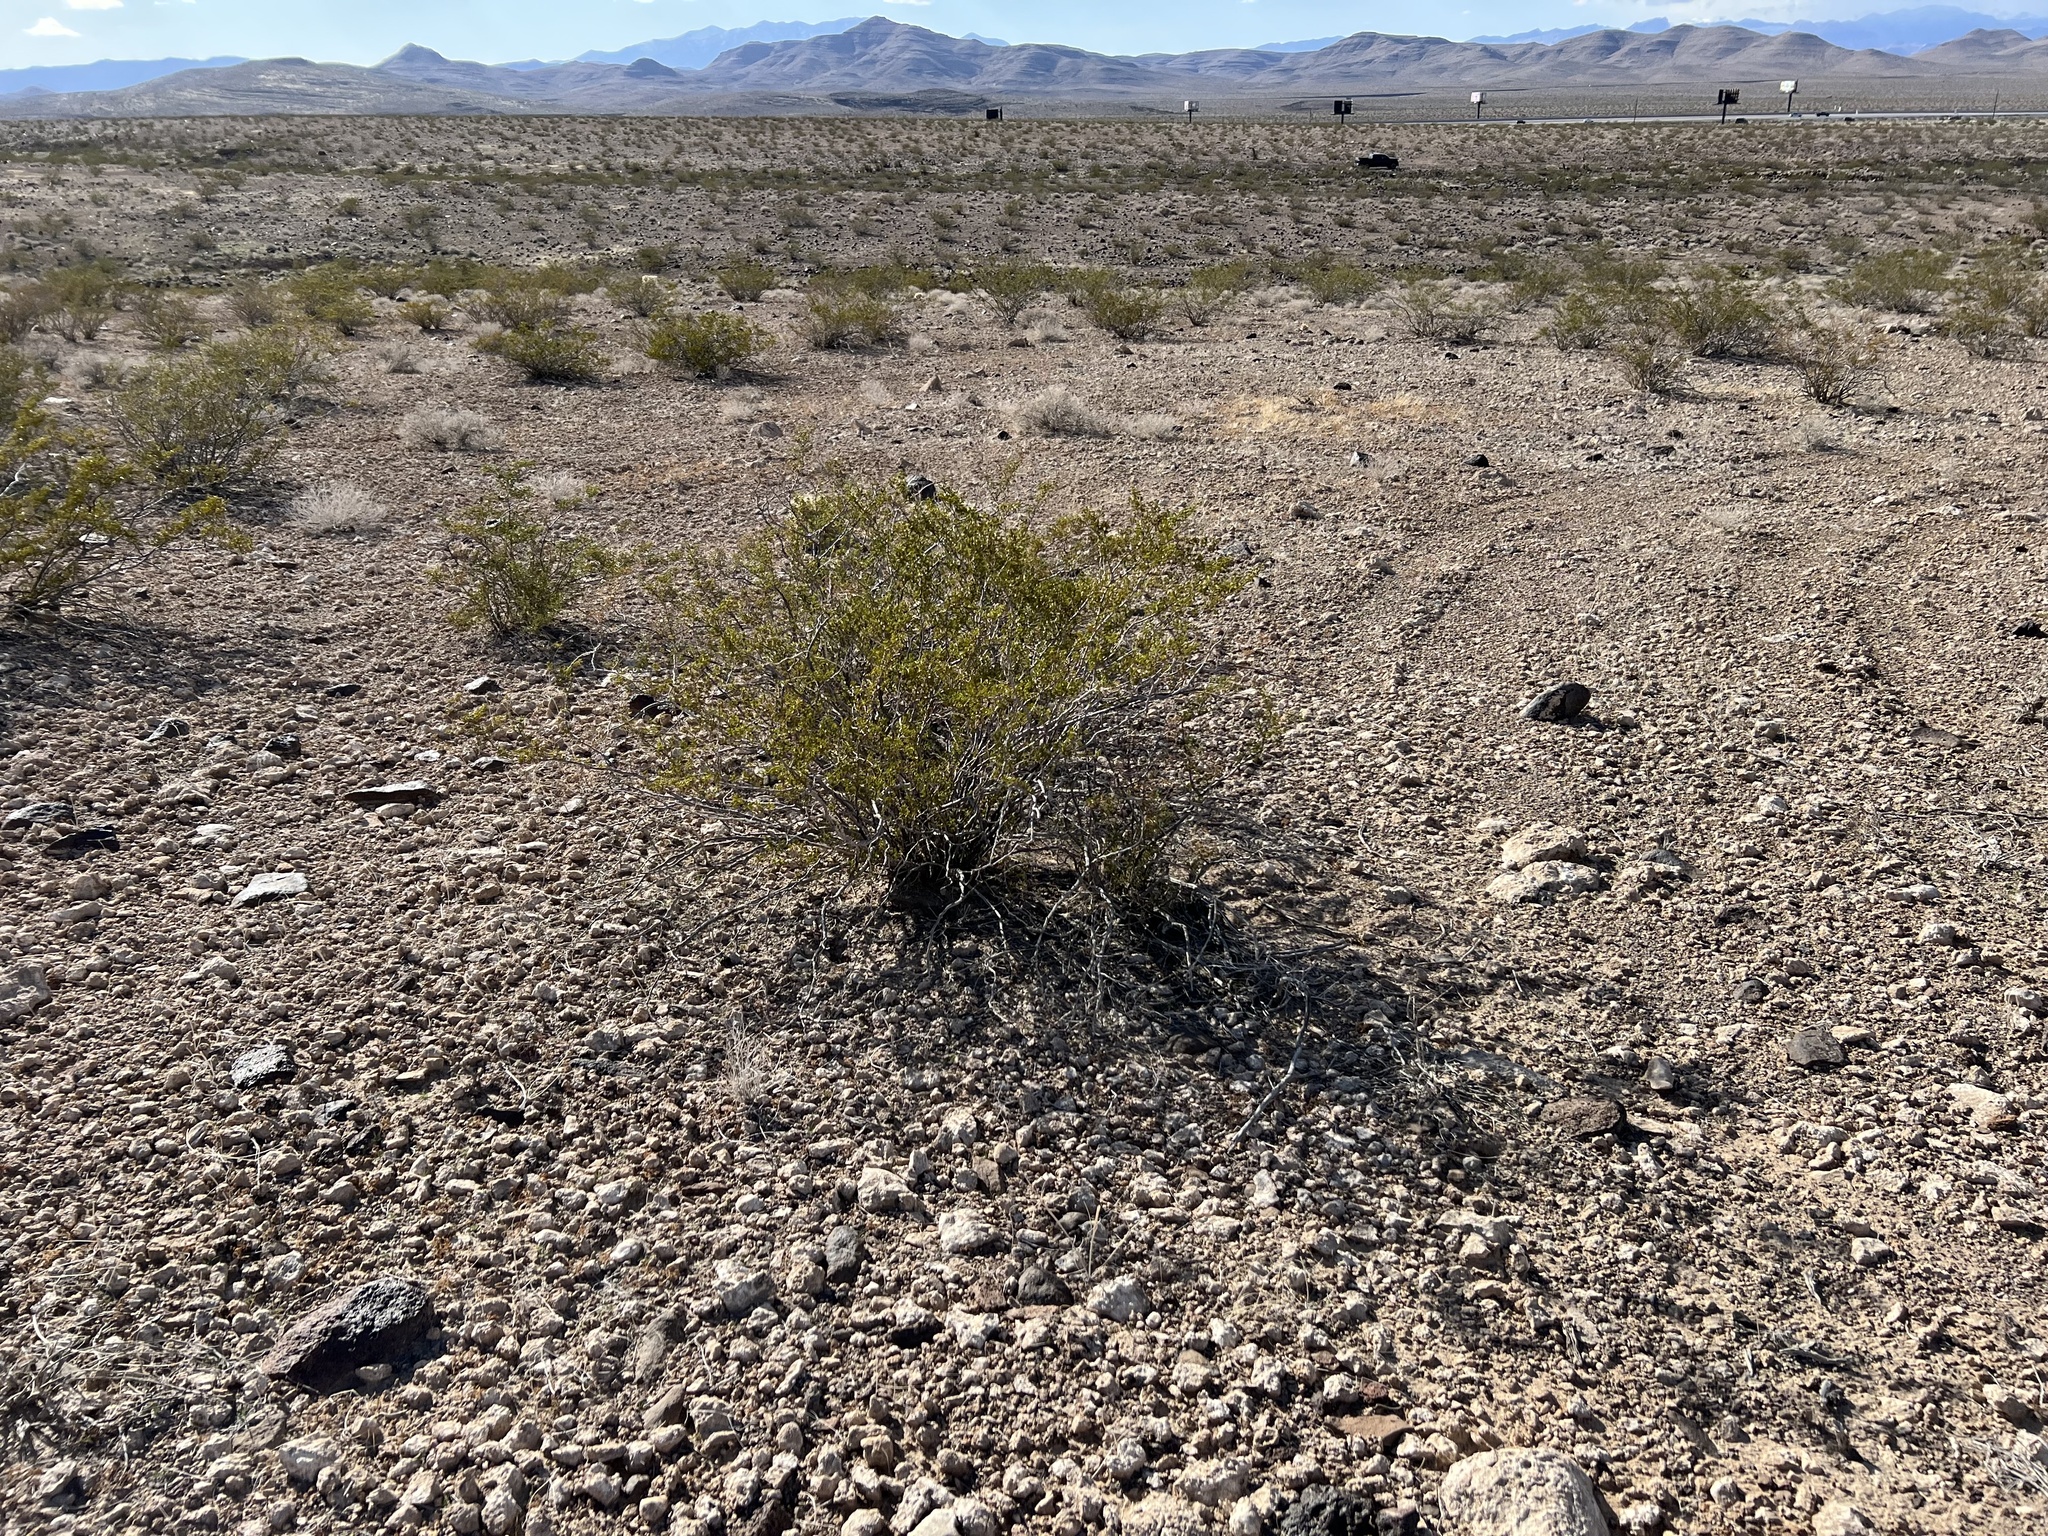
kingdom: Plantae
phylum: Tracheophyta
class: Magnoliopsida
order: Zygophyllales
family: Zygophyllaceae
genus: Larrea
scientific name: Larrea tridentata
